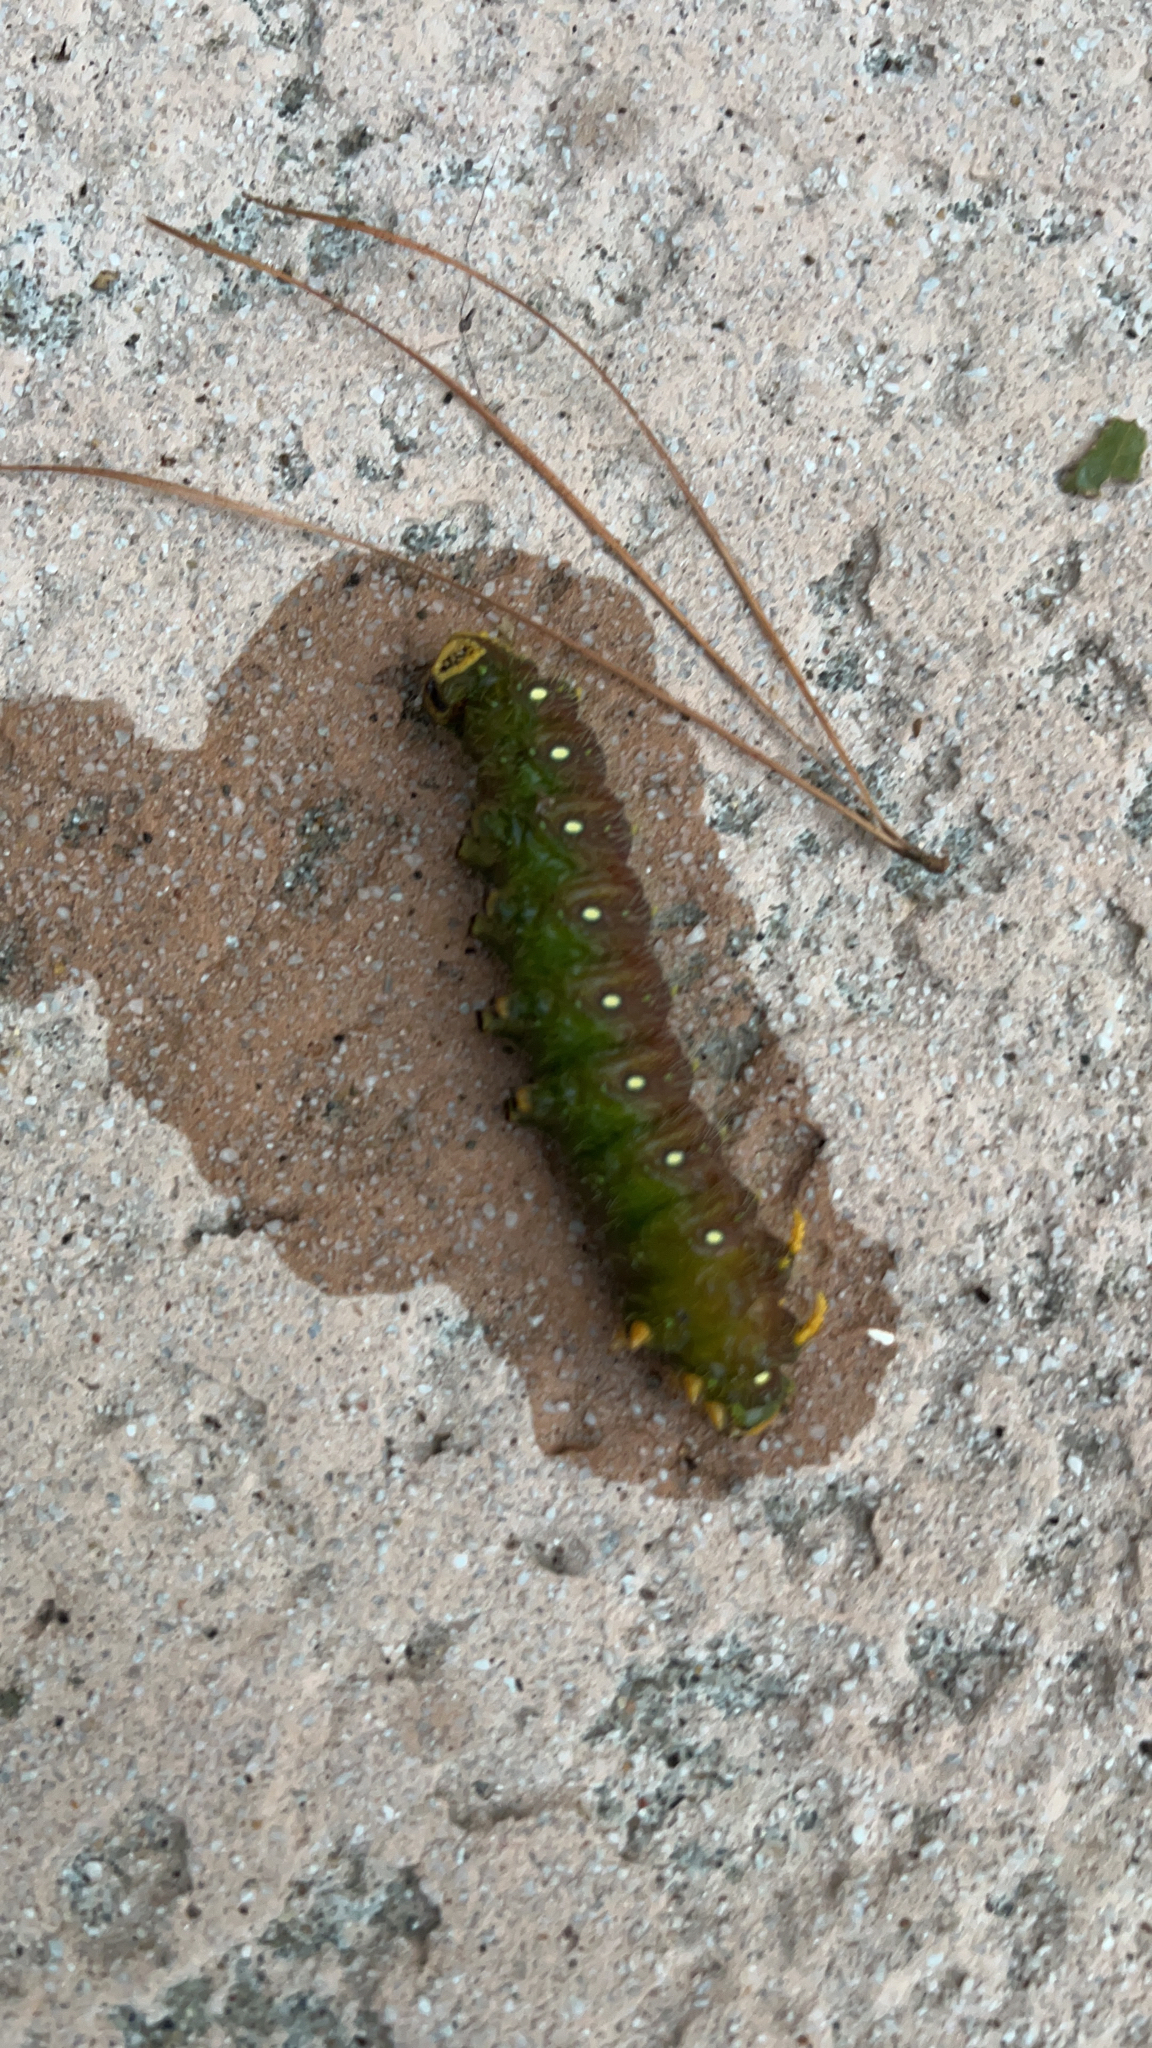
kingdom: Animalia
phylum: Arthropoda
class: Insecta
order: Lepidoptera
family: Saturniidae
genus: Eacles
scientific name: Eacles imperialis
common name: Imperial moth
